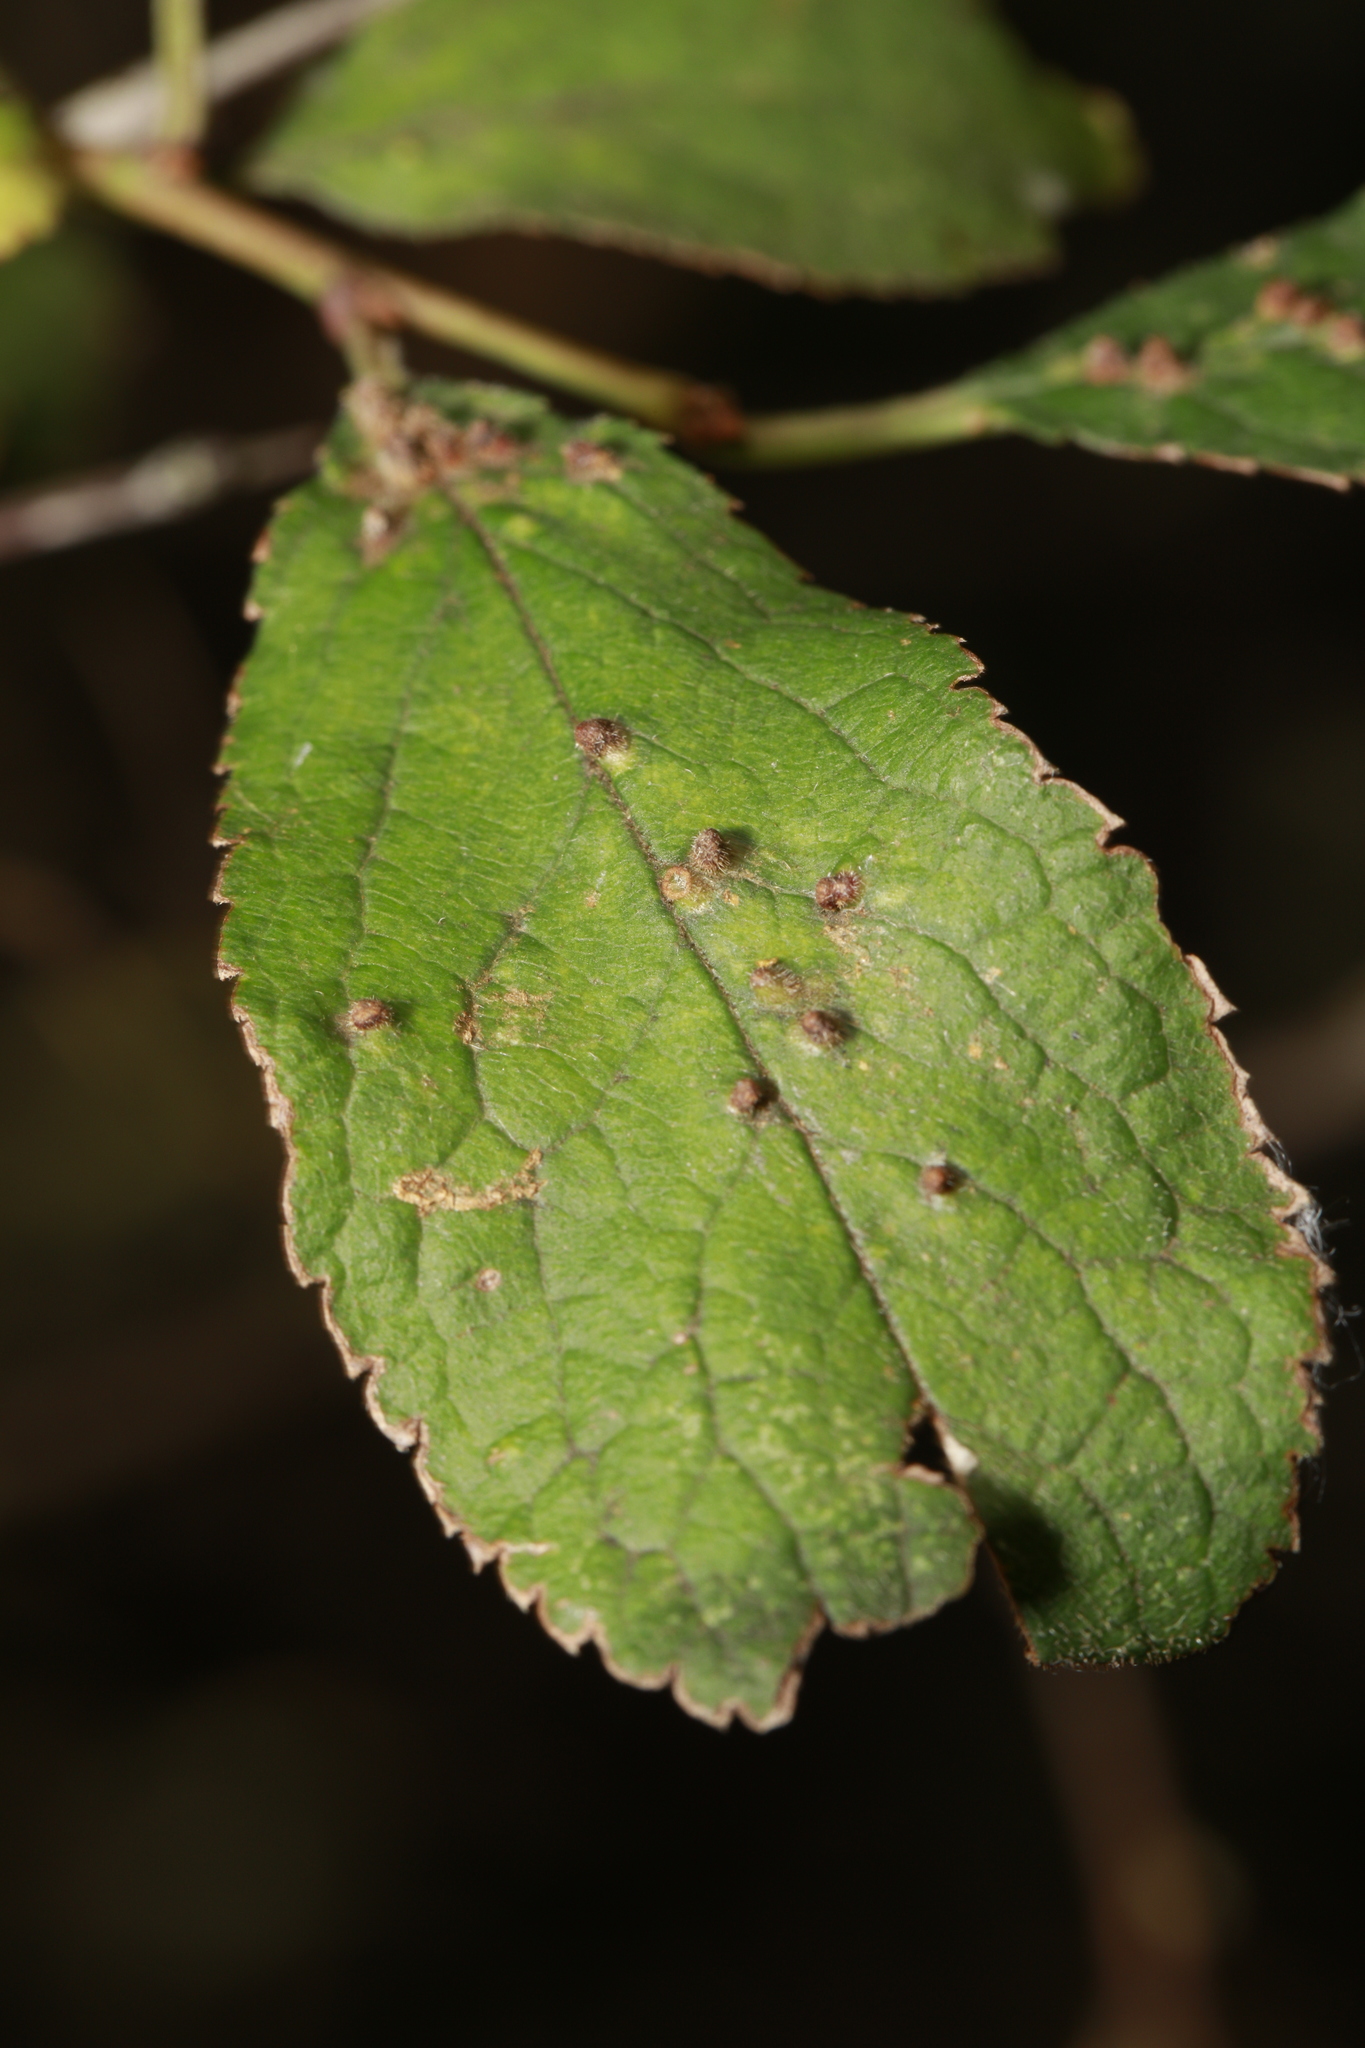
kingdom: Animalia
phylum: Arthropoda
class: Arachnida
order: Trombidiformes
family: Eriophyidae
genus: Eriophyes
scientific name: Eriophyes homophyllus
